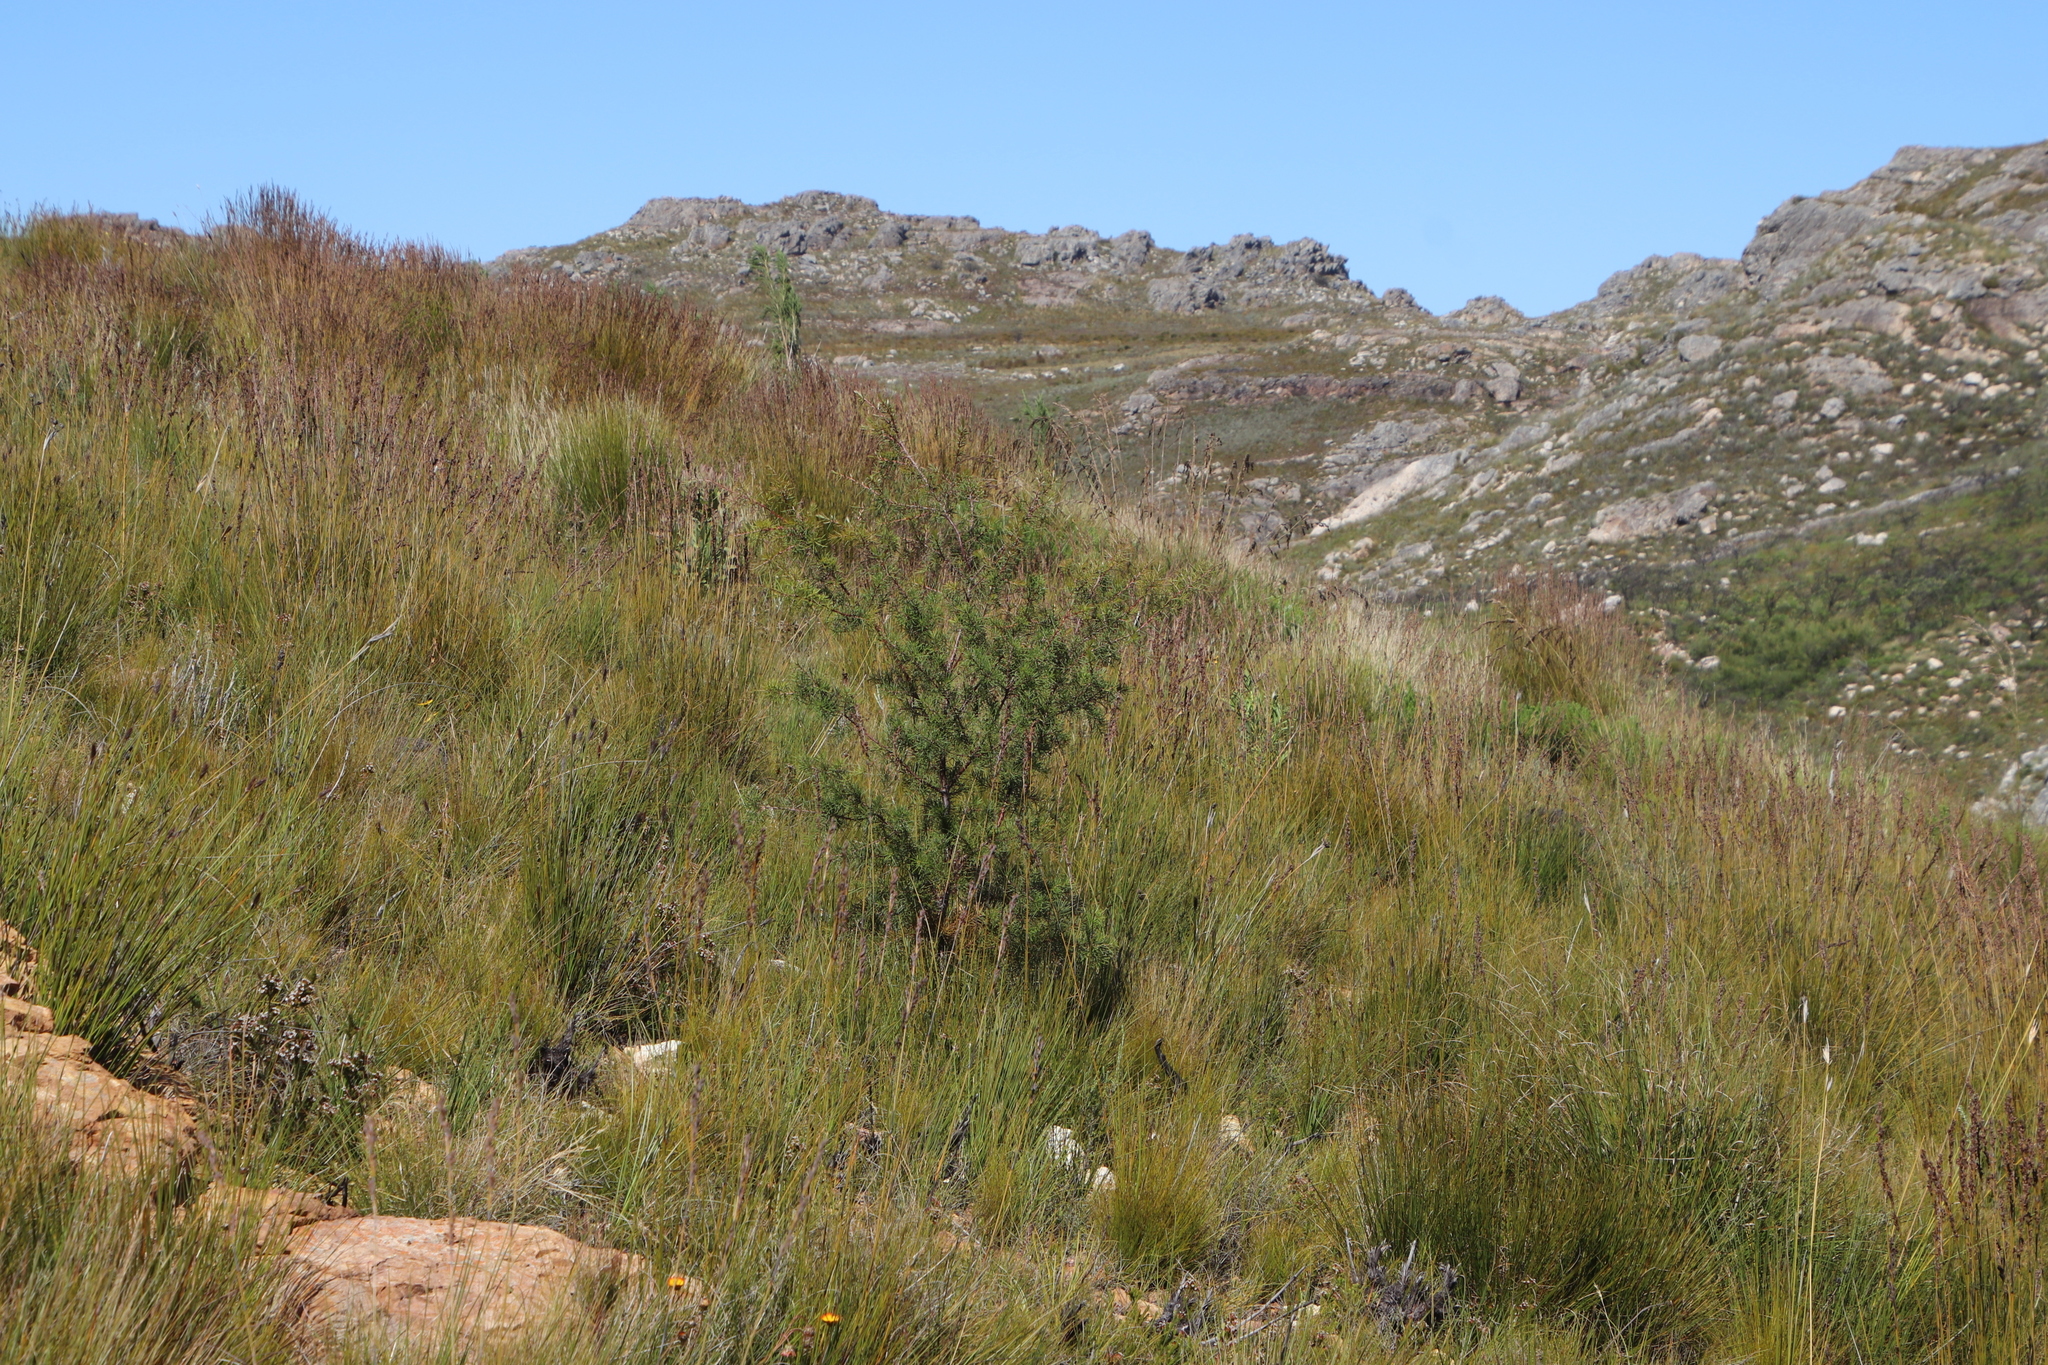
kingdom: Plantae
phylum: Tracheophyta
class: Magnoliopsida
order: Proteales
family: Proteaceae
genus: Hakea
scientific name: Hakea sericea
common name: Needle bush
